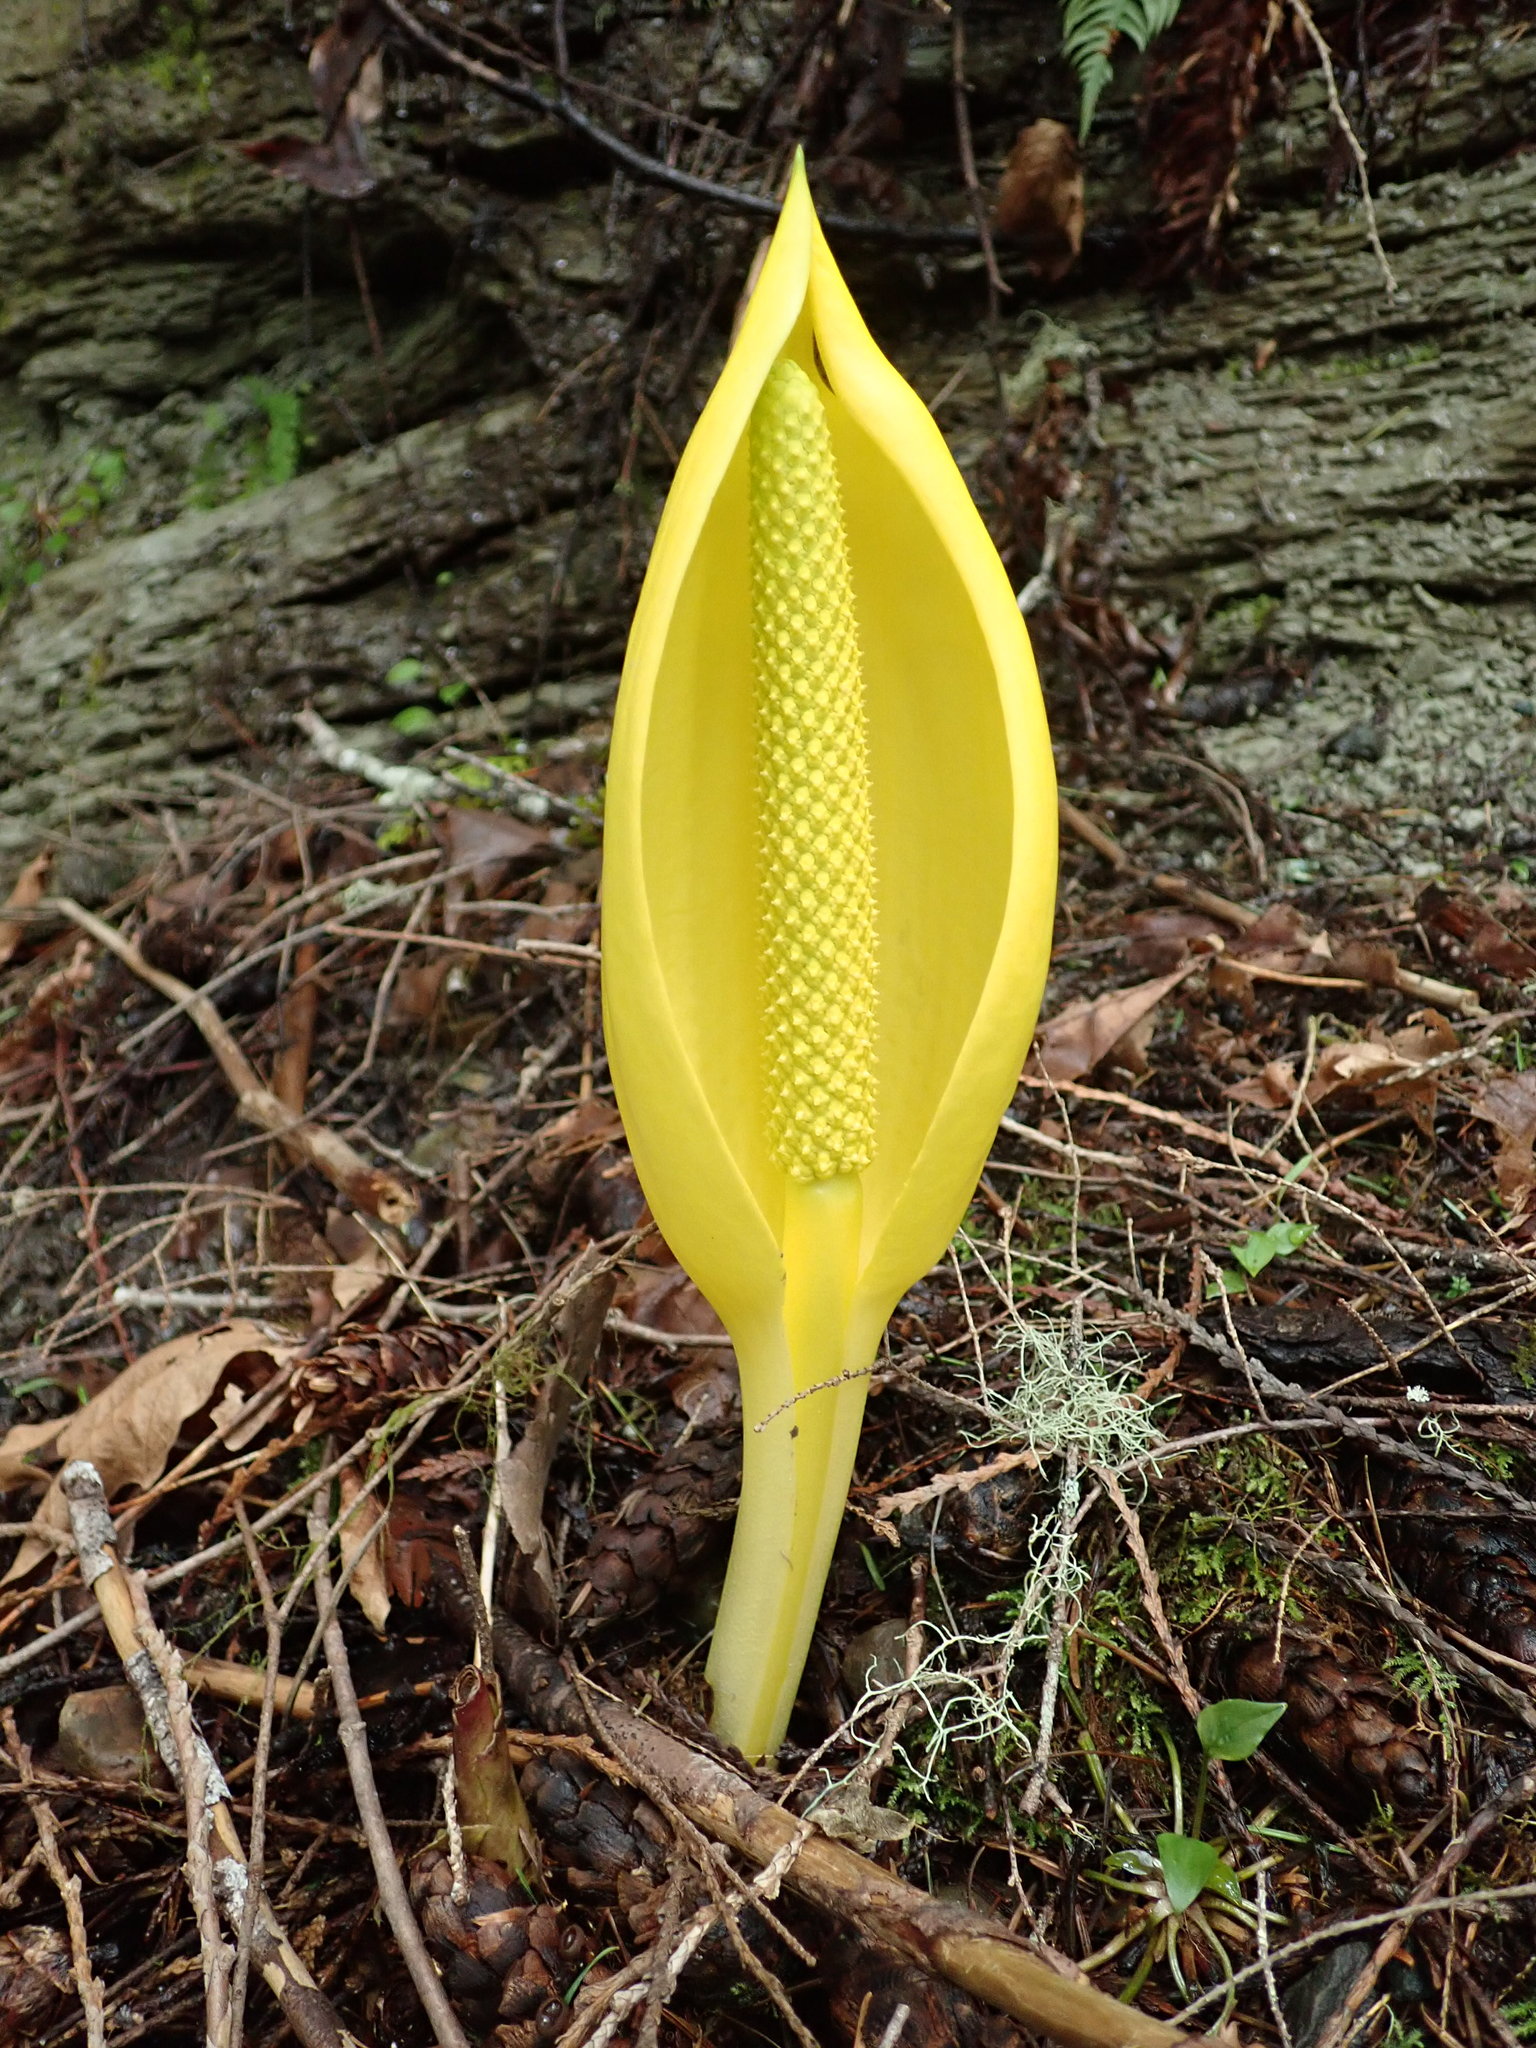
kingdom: Plantae
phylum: Tracheophyta
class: Liliopsida
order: Alismatales
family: Araceae
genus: Lysichiton
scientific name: Lysichiton americanus
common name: American skunk cabbage
